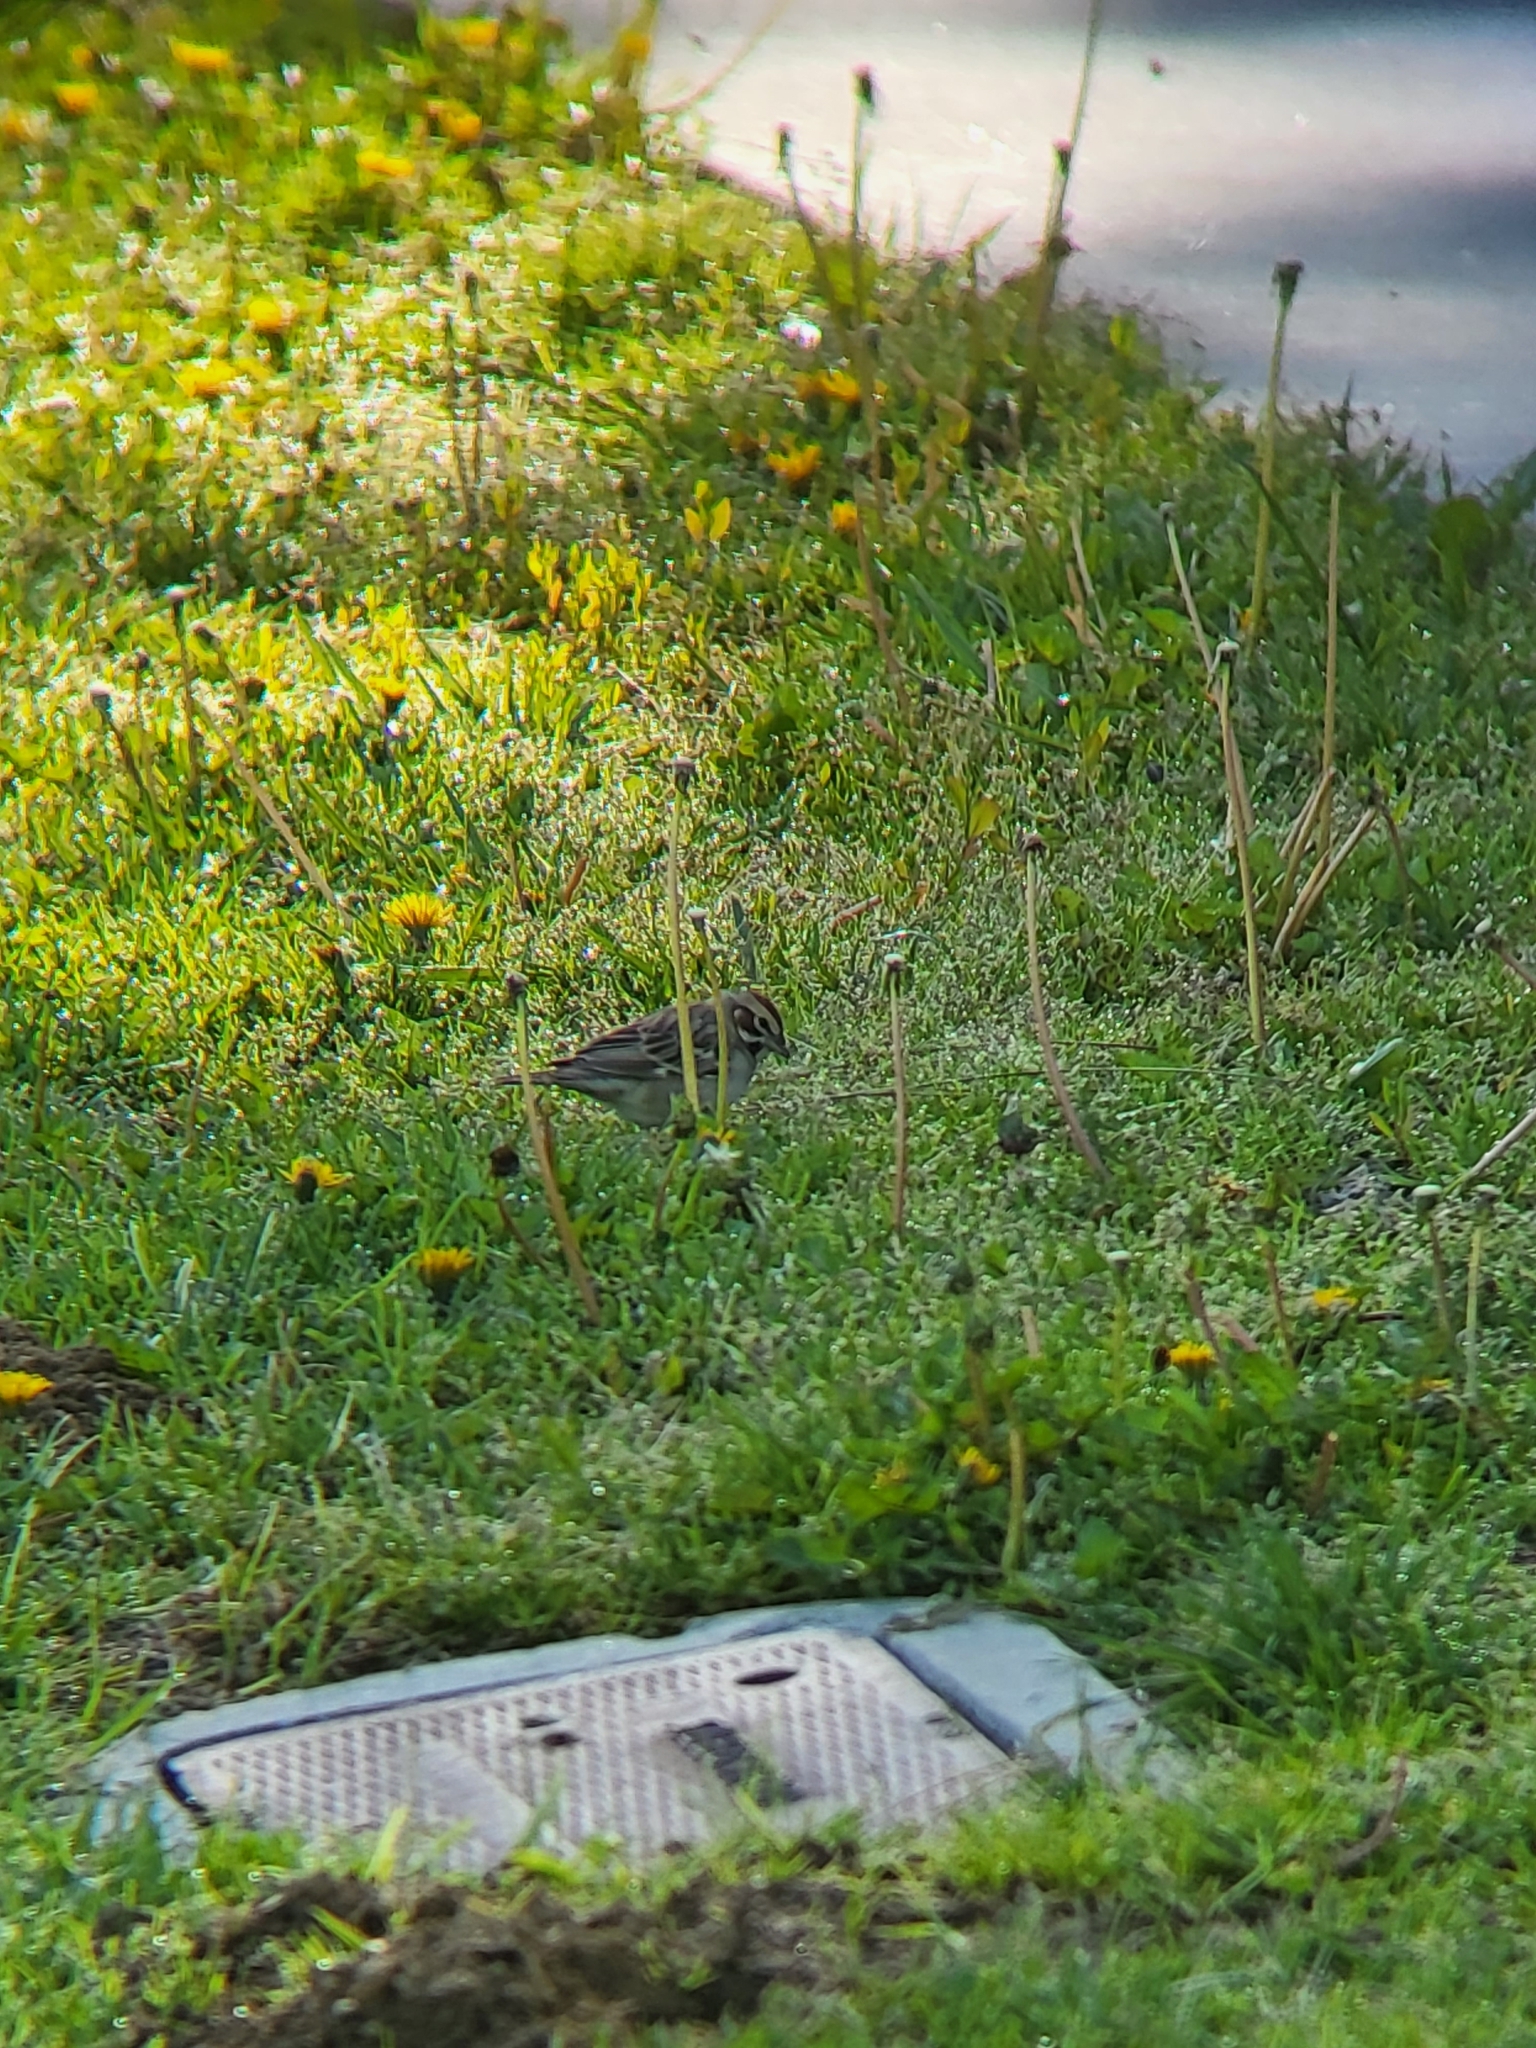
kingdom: Animalia
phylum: Chordata
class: Aves
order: Passeriformes
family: Passerellidae
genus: Chondestes
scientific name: Chondestes grammacus
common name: Lark sparrow
